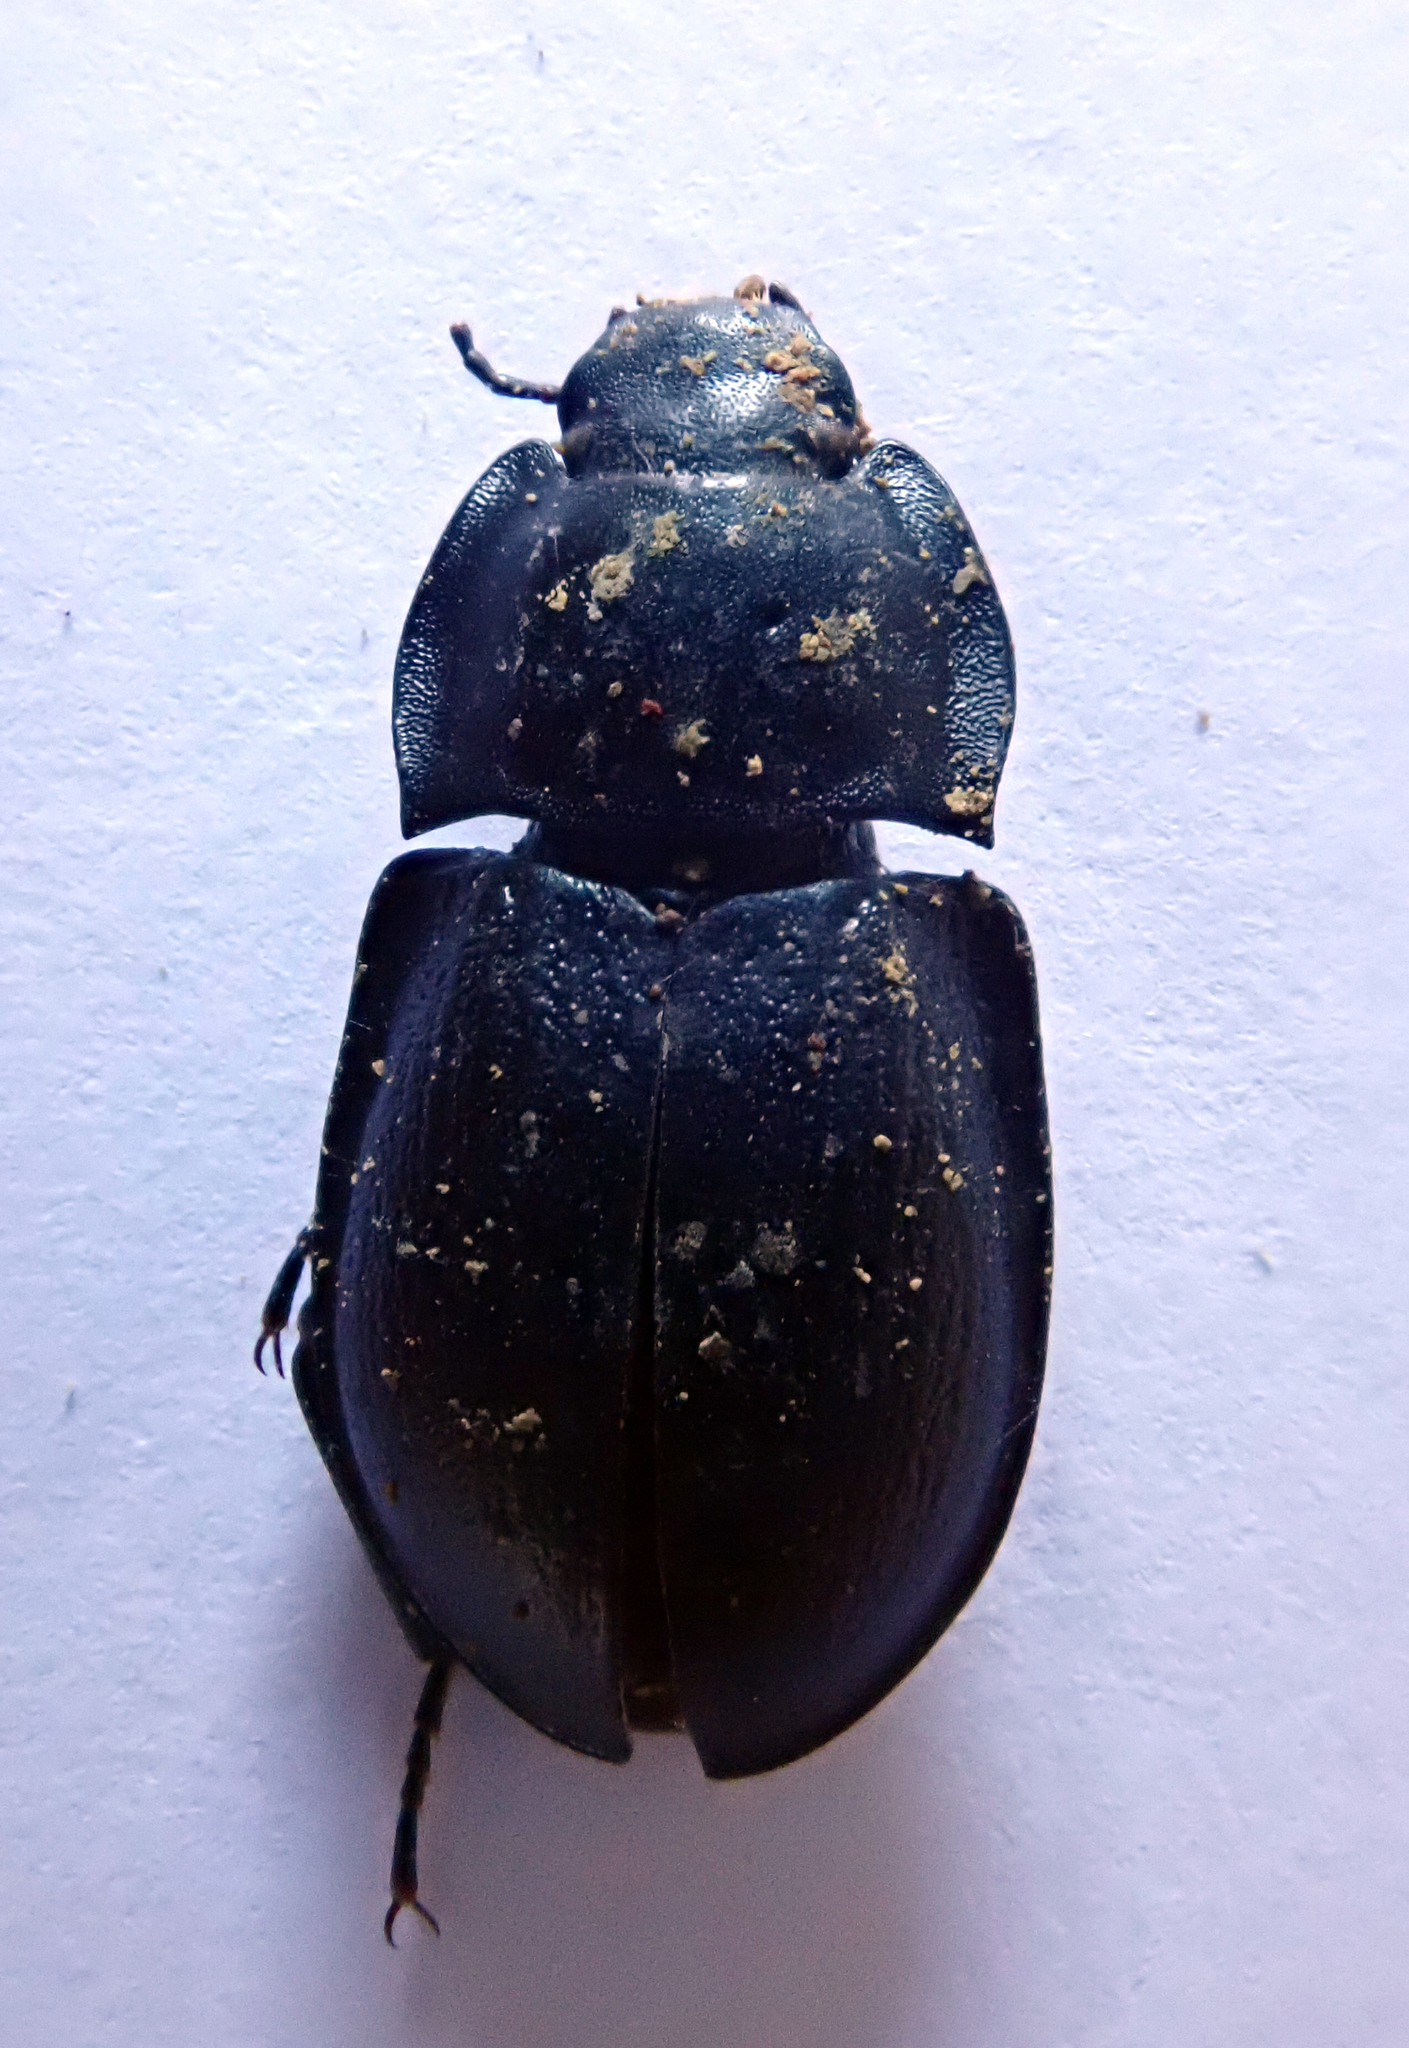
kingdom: Animalia
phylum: Arthropoda
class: Insecta
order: Coleoptera
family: Tenebrionidae
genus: Mimopeus
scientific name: Mimopeus
